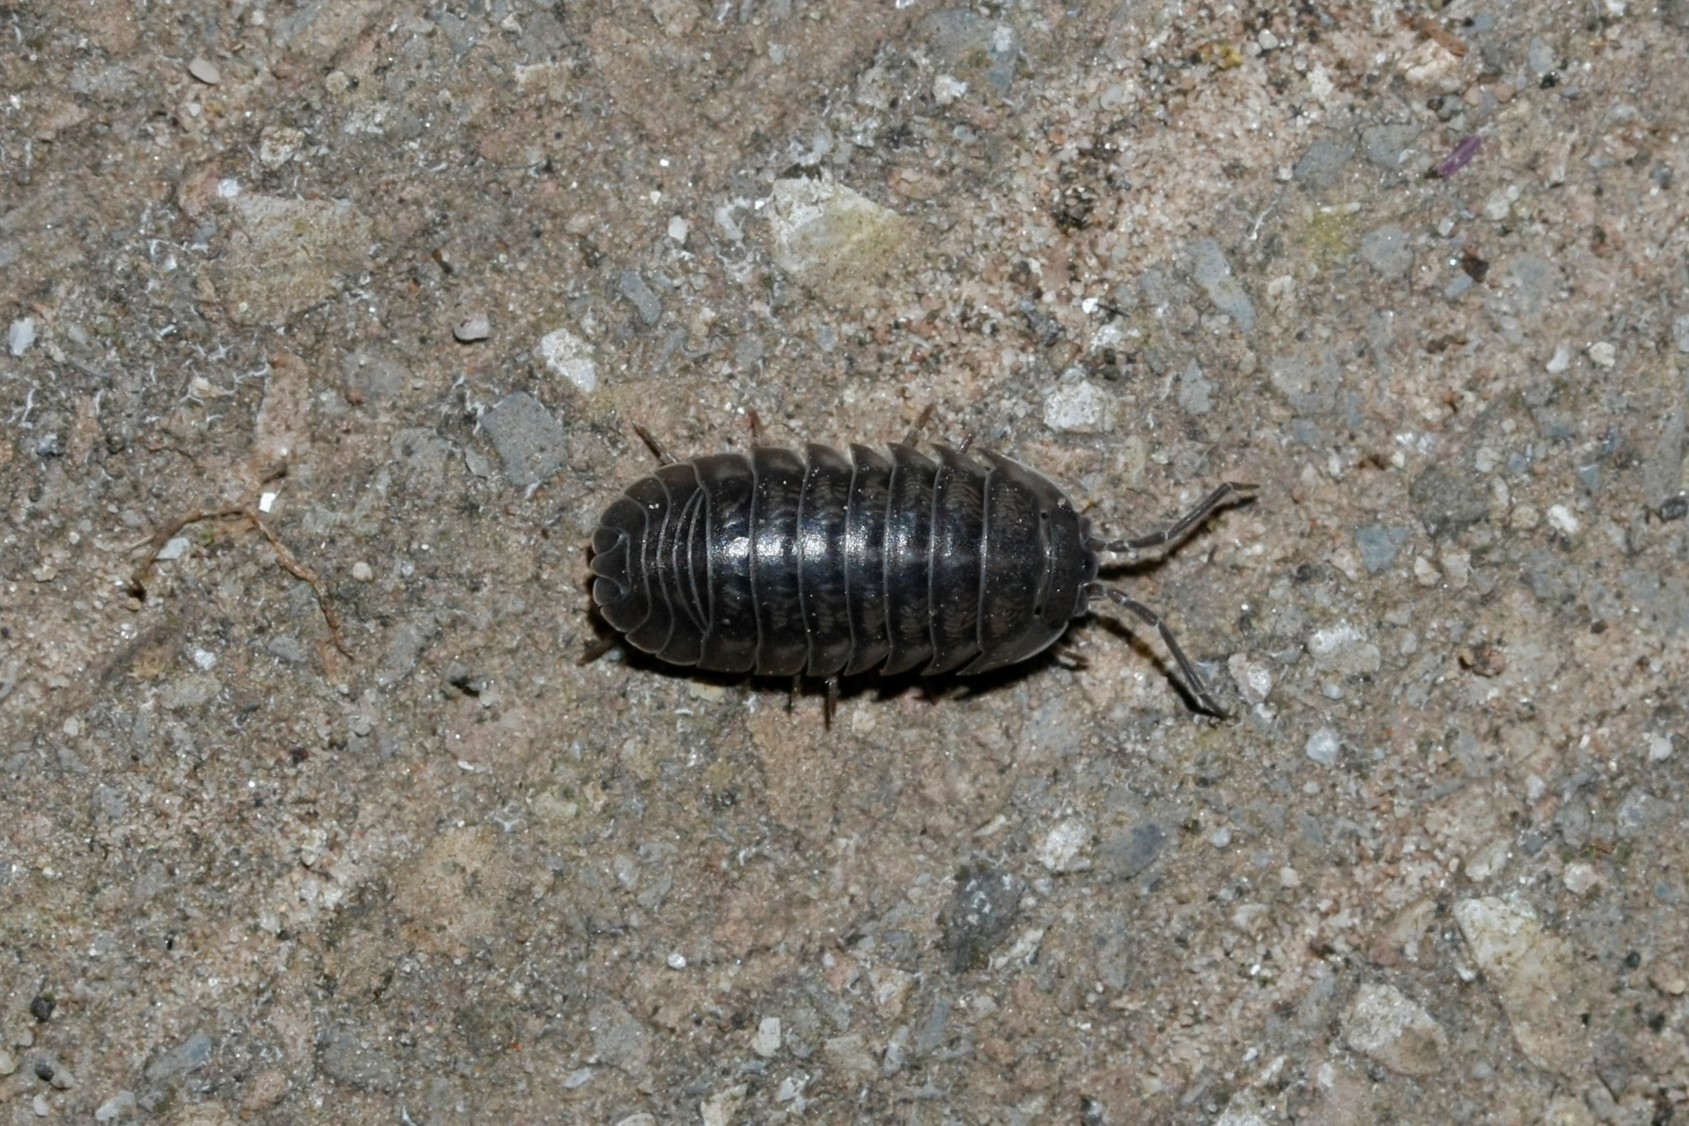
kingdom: Animalia
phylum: Arthropoda
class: Malacostraca
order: Isopoda
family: Armadillidiidae
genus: Armadillidium
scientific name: Armadillidium nasatum
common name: Isopod
